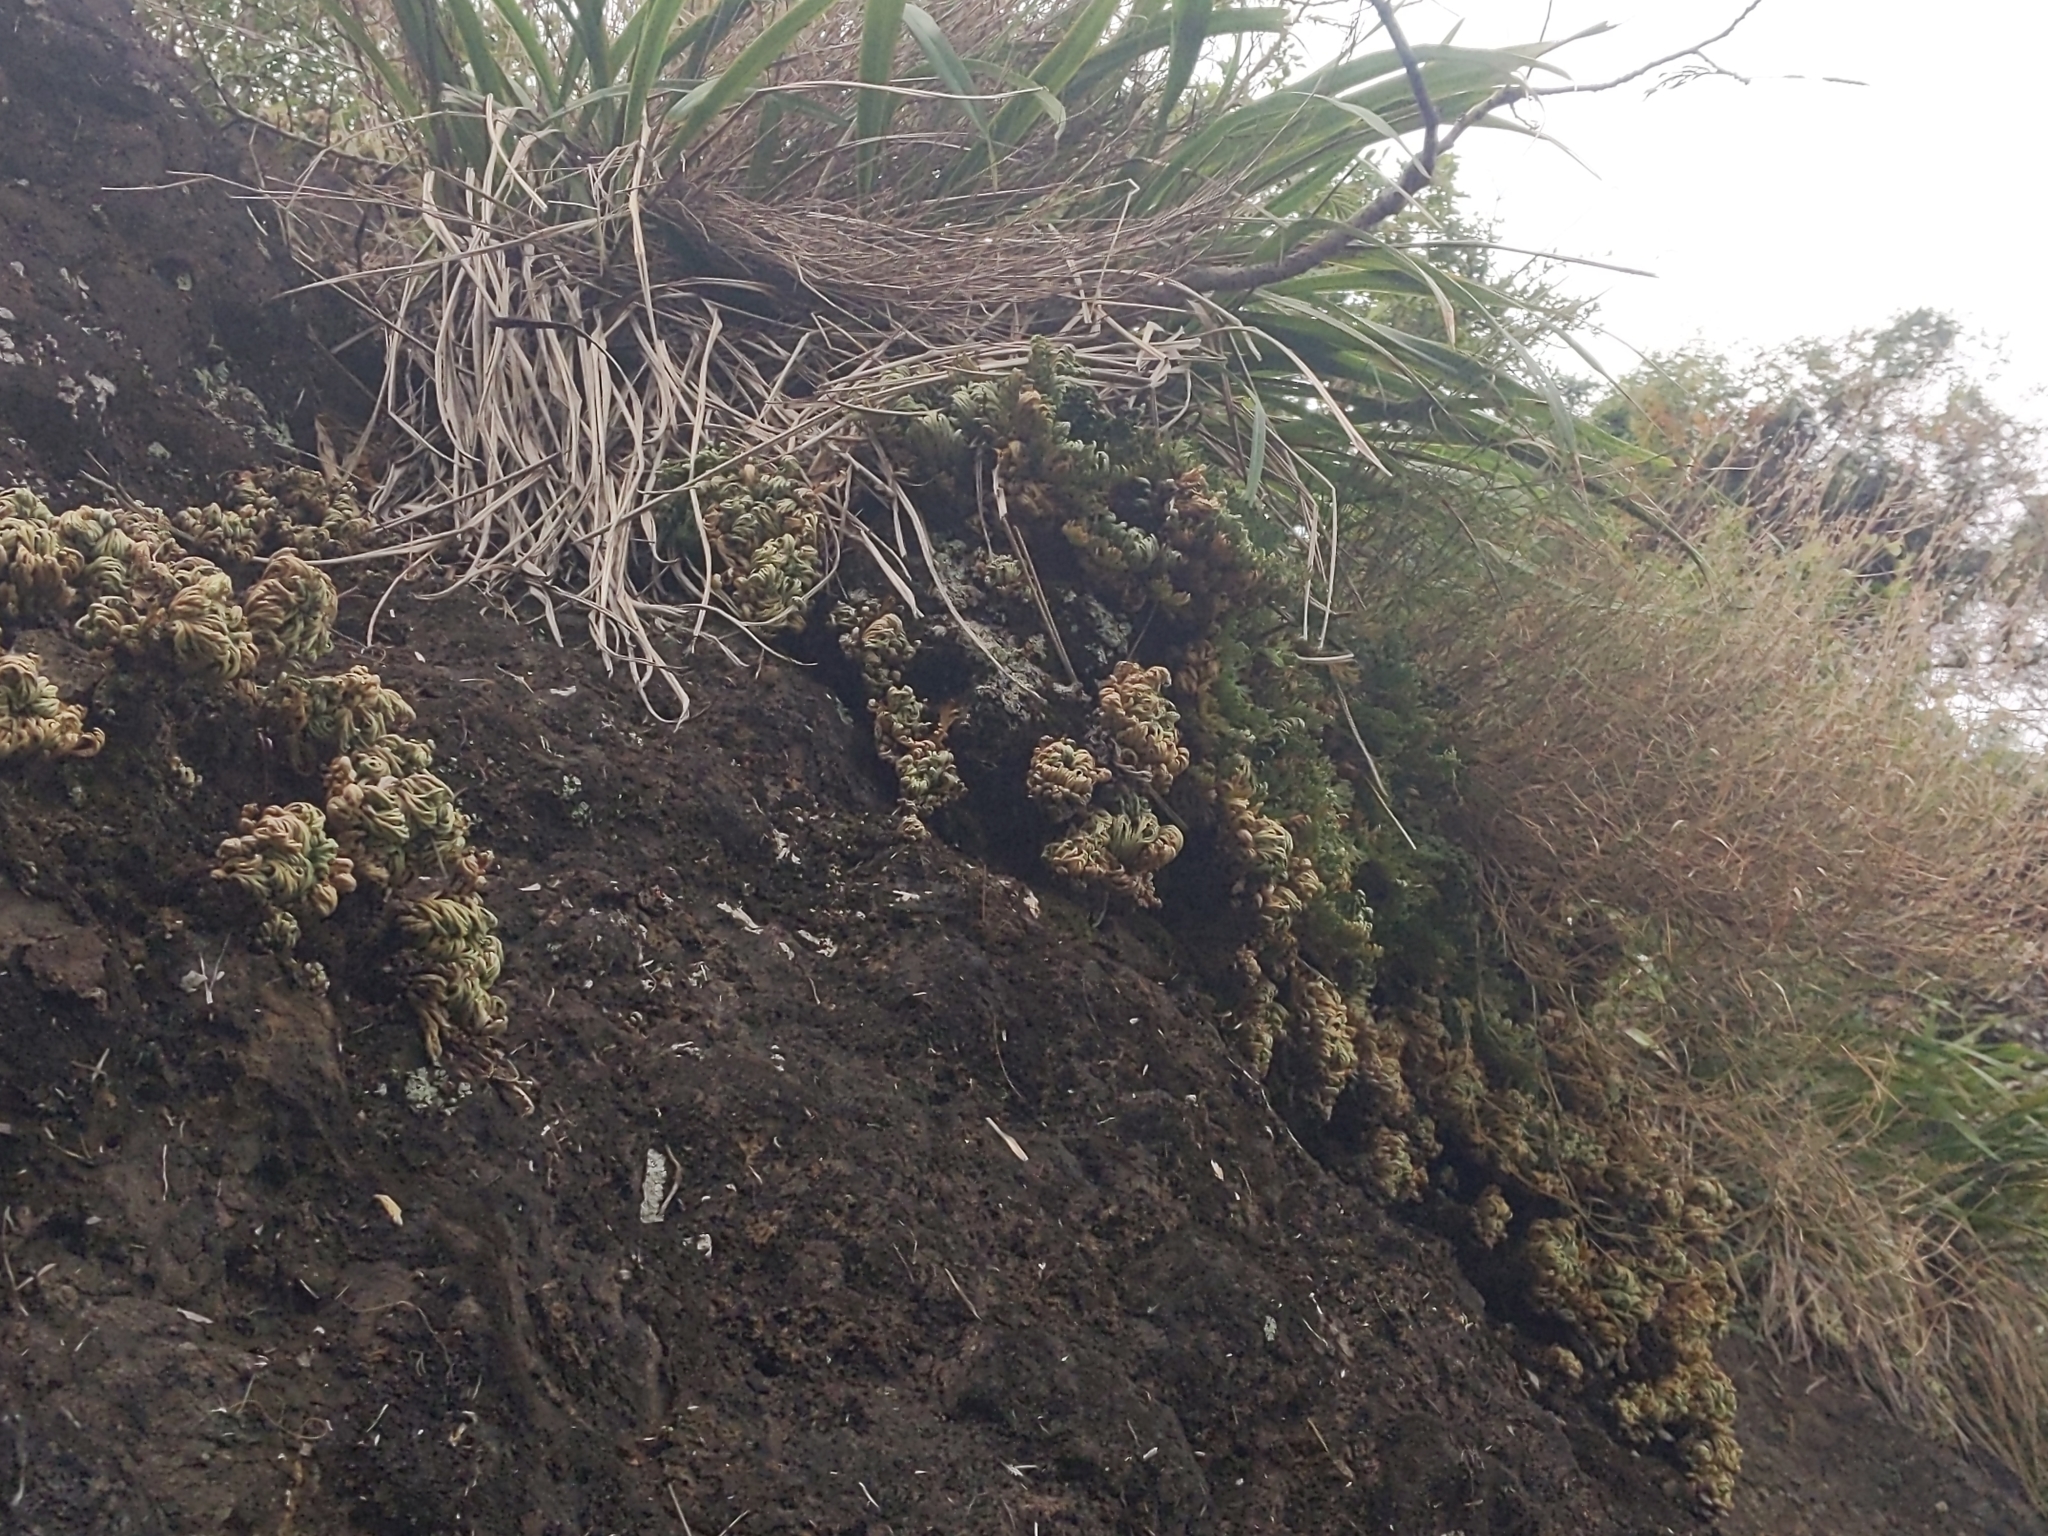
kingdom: Plantae
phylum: Tracheophyta
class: Lycopodiopsida
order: Selaginellales
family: Selaginellaceae
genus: Selaginella
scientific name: Selaginella tamariscina
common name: Little-club-moss
